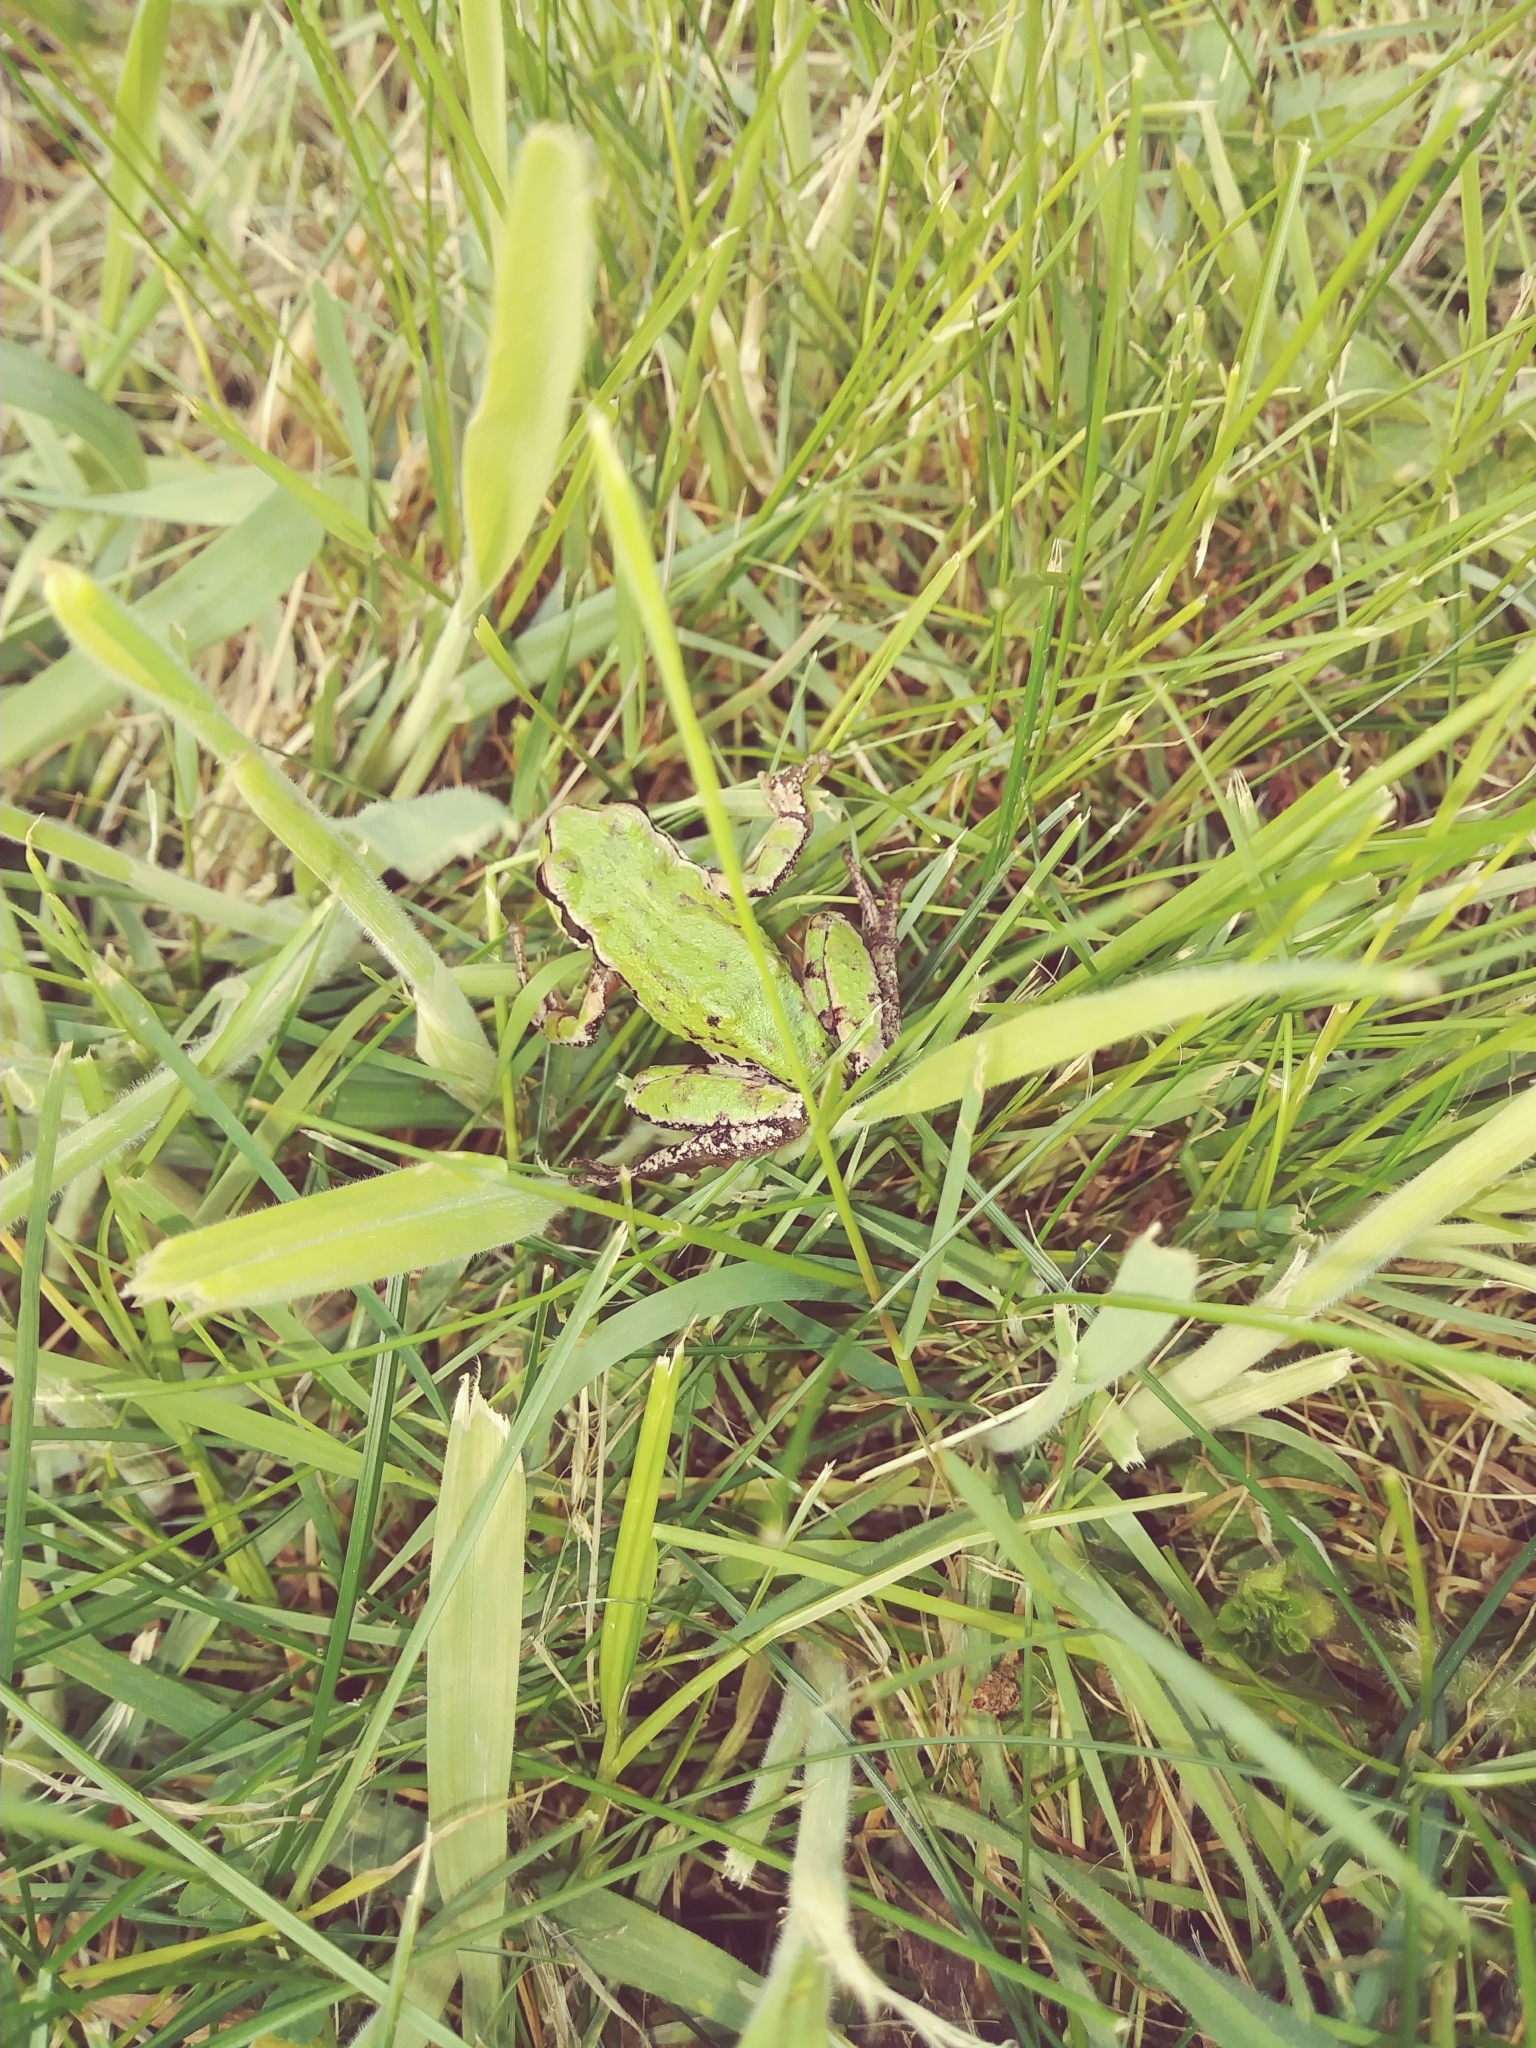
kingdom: Animalia
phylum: Chordata
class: Amphibia
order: Anura
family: Hylidae
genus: Pseudacris
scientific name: Pseudacris regilla
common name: Pacific chorus frog
